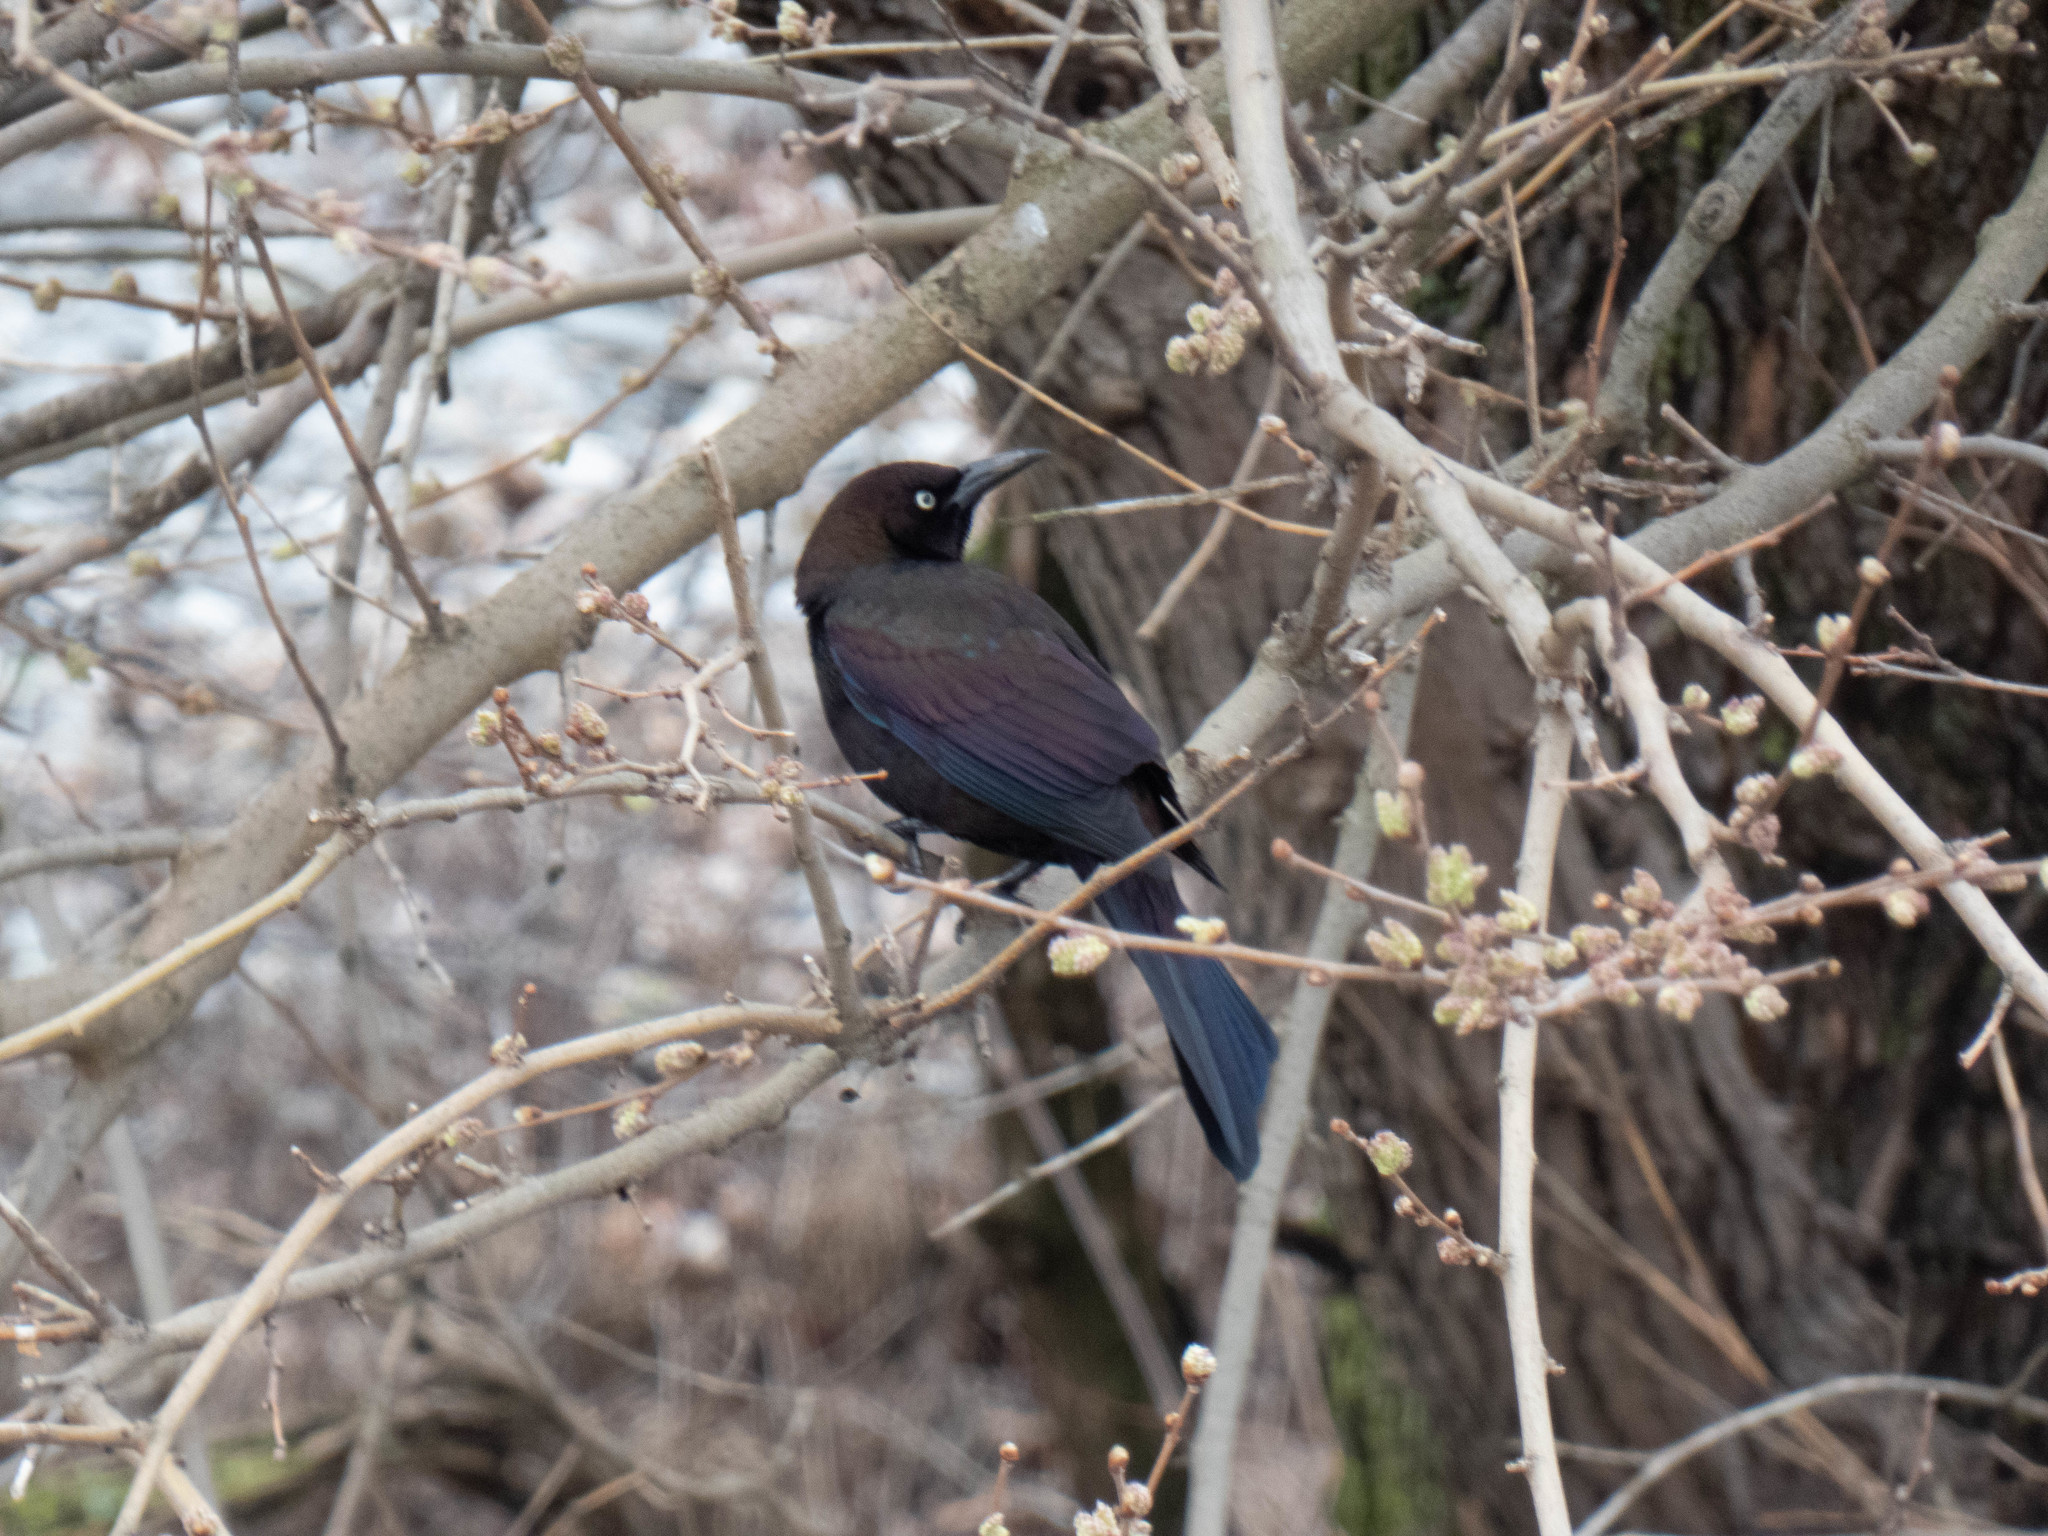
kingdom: Animalia
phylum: Chordata
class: Aves
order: Passeriformes
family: Icteridae
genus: Quiscalus
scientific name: Quiscalus quiscula
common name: Common grackle
